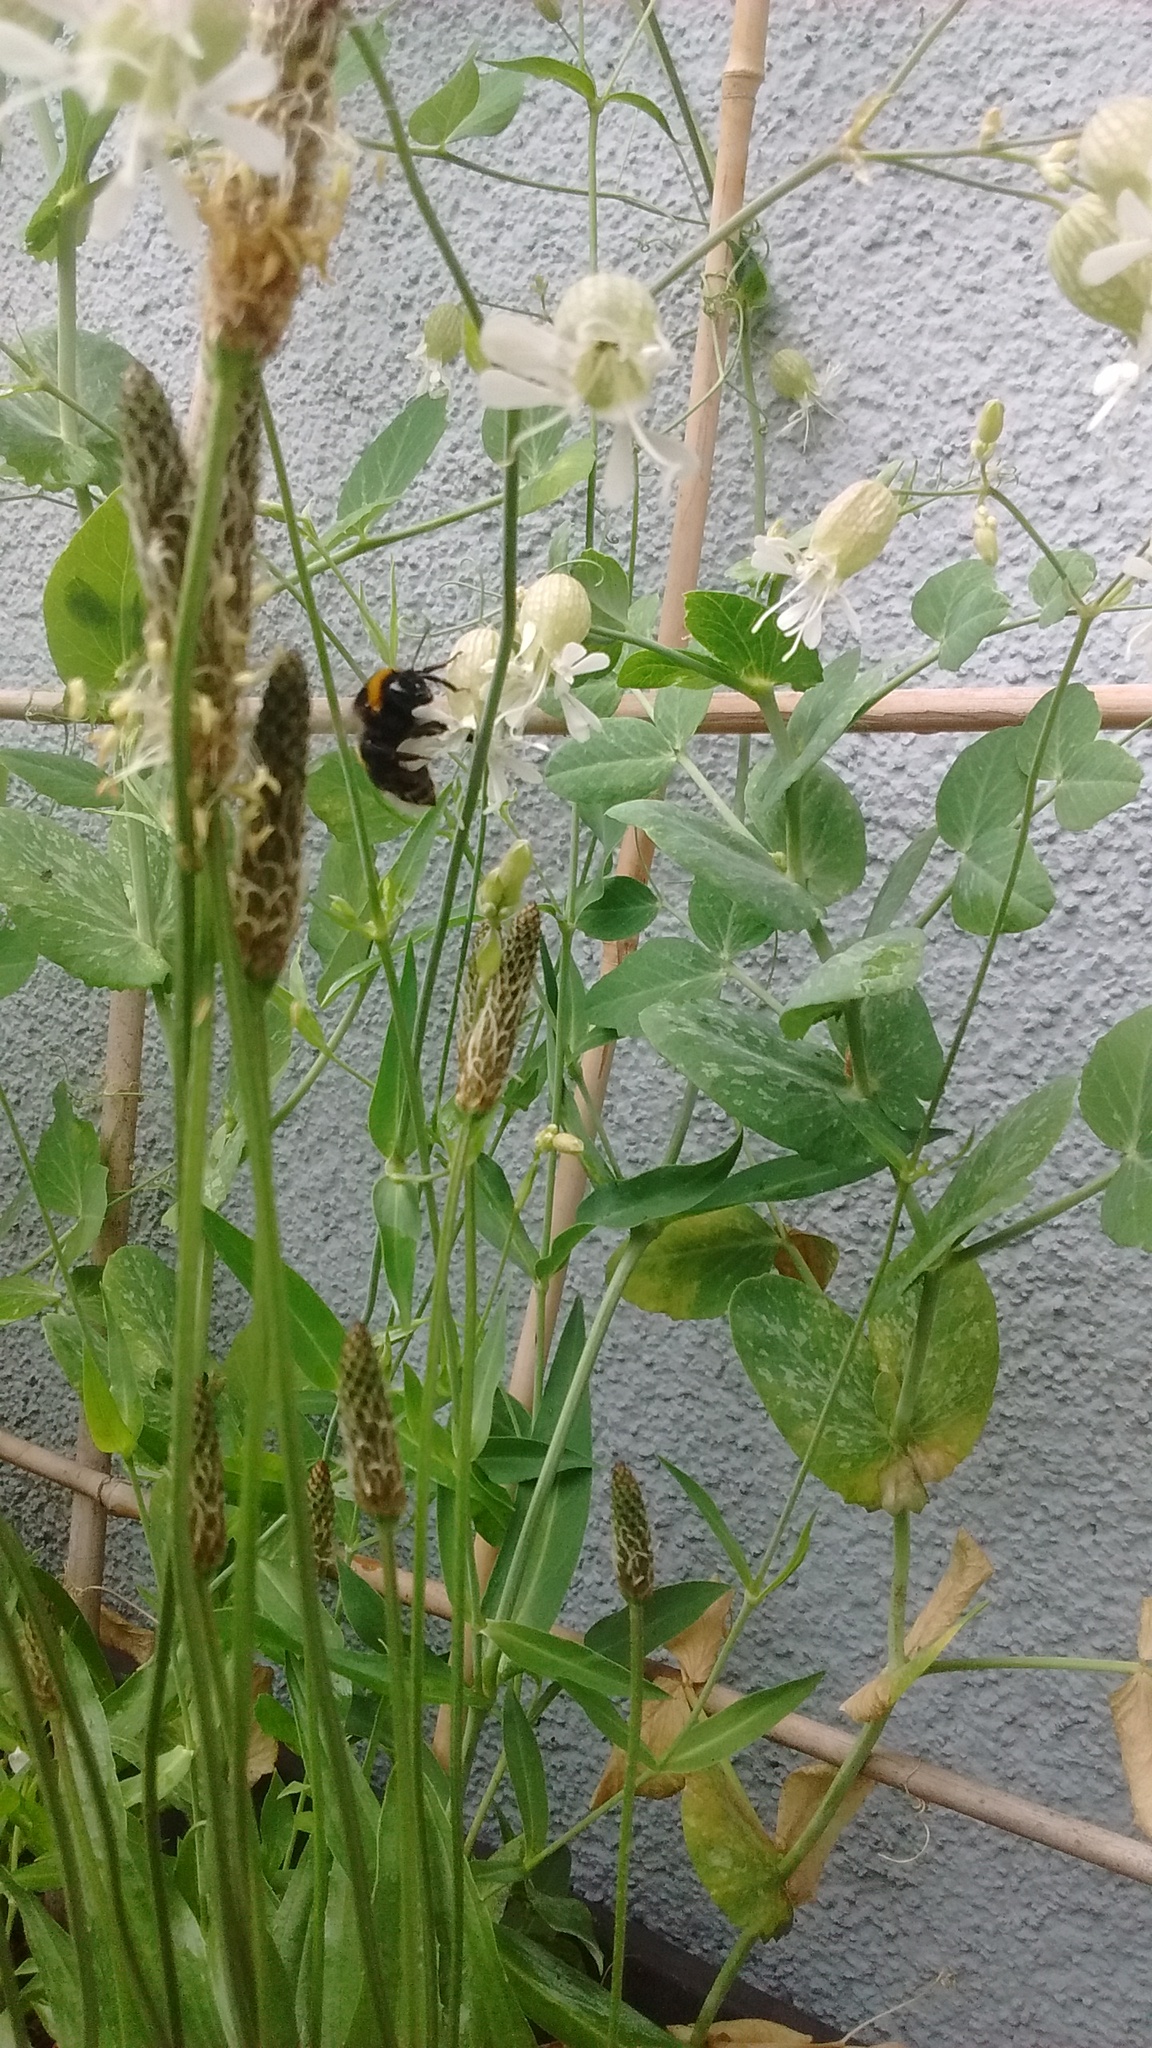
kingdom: Animalia
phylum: Arthropoda
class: Insecta
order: Hymenoptera
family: Apidae
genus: Bombus
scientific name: Bombus
